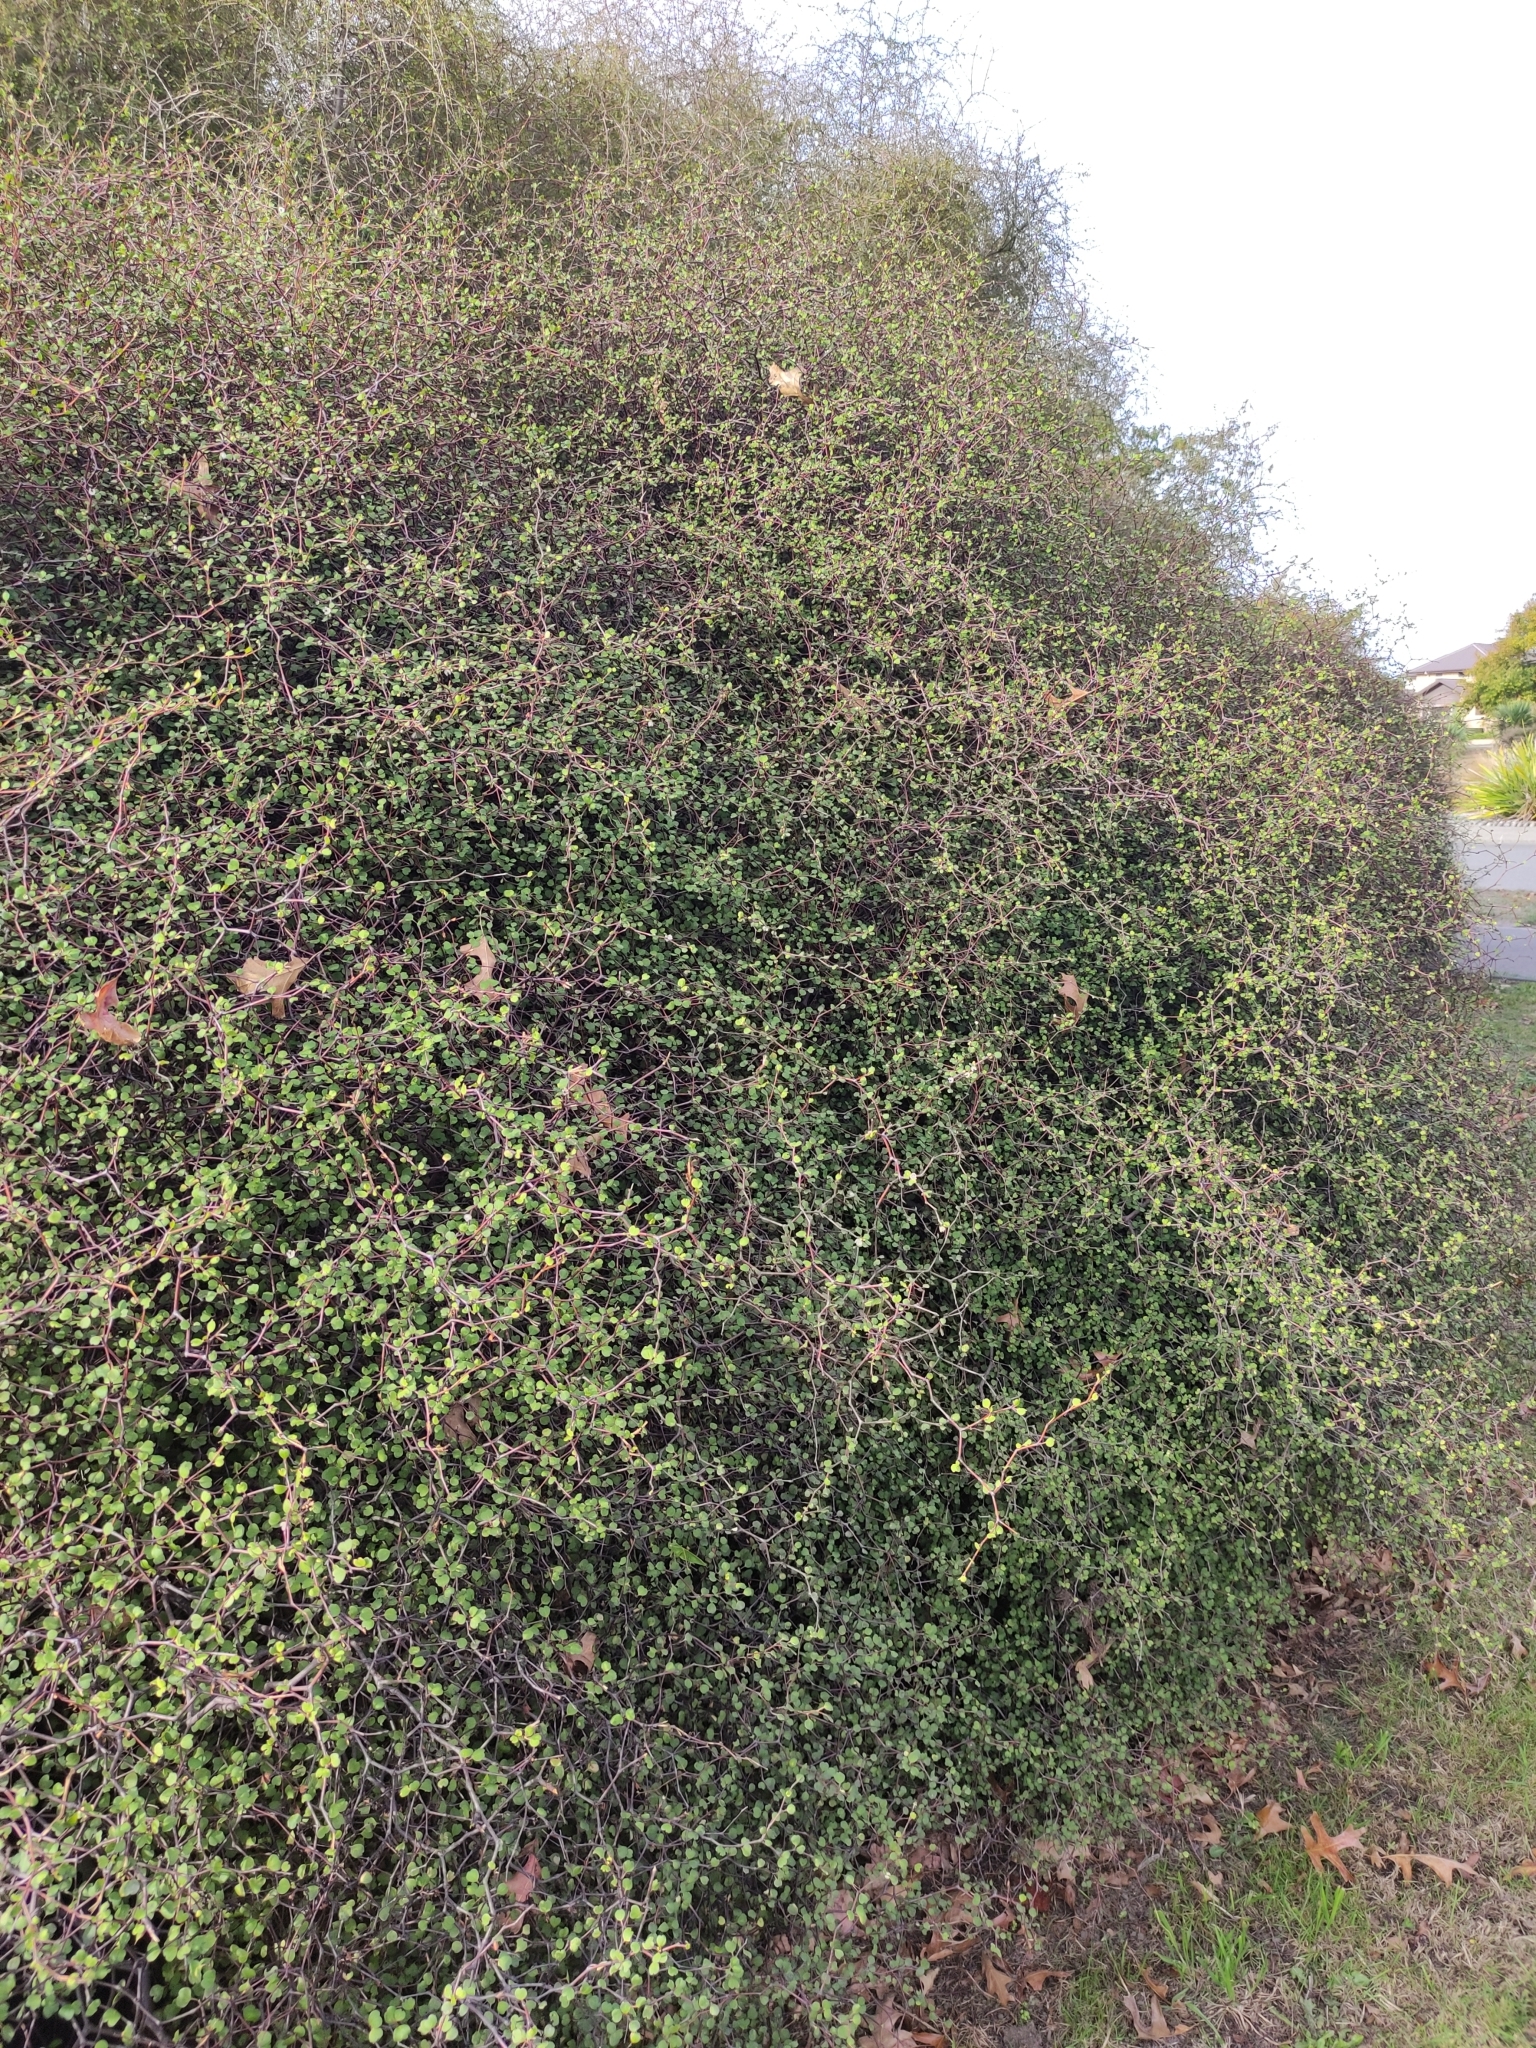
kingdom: Plantae
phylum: Tracheophyta
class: Magnoliopsida
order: Caryophyllales
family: Polygonaceae
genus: Muehlenbeckia
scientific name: Muehlenbeckia astonii
